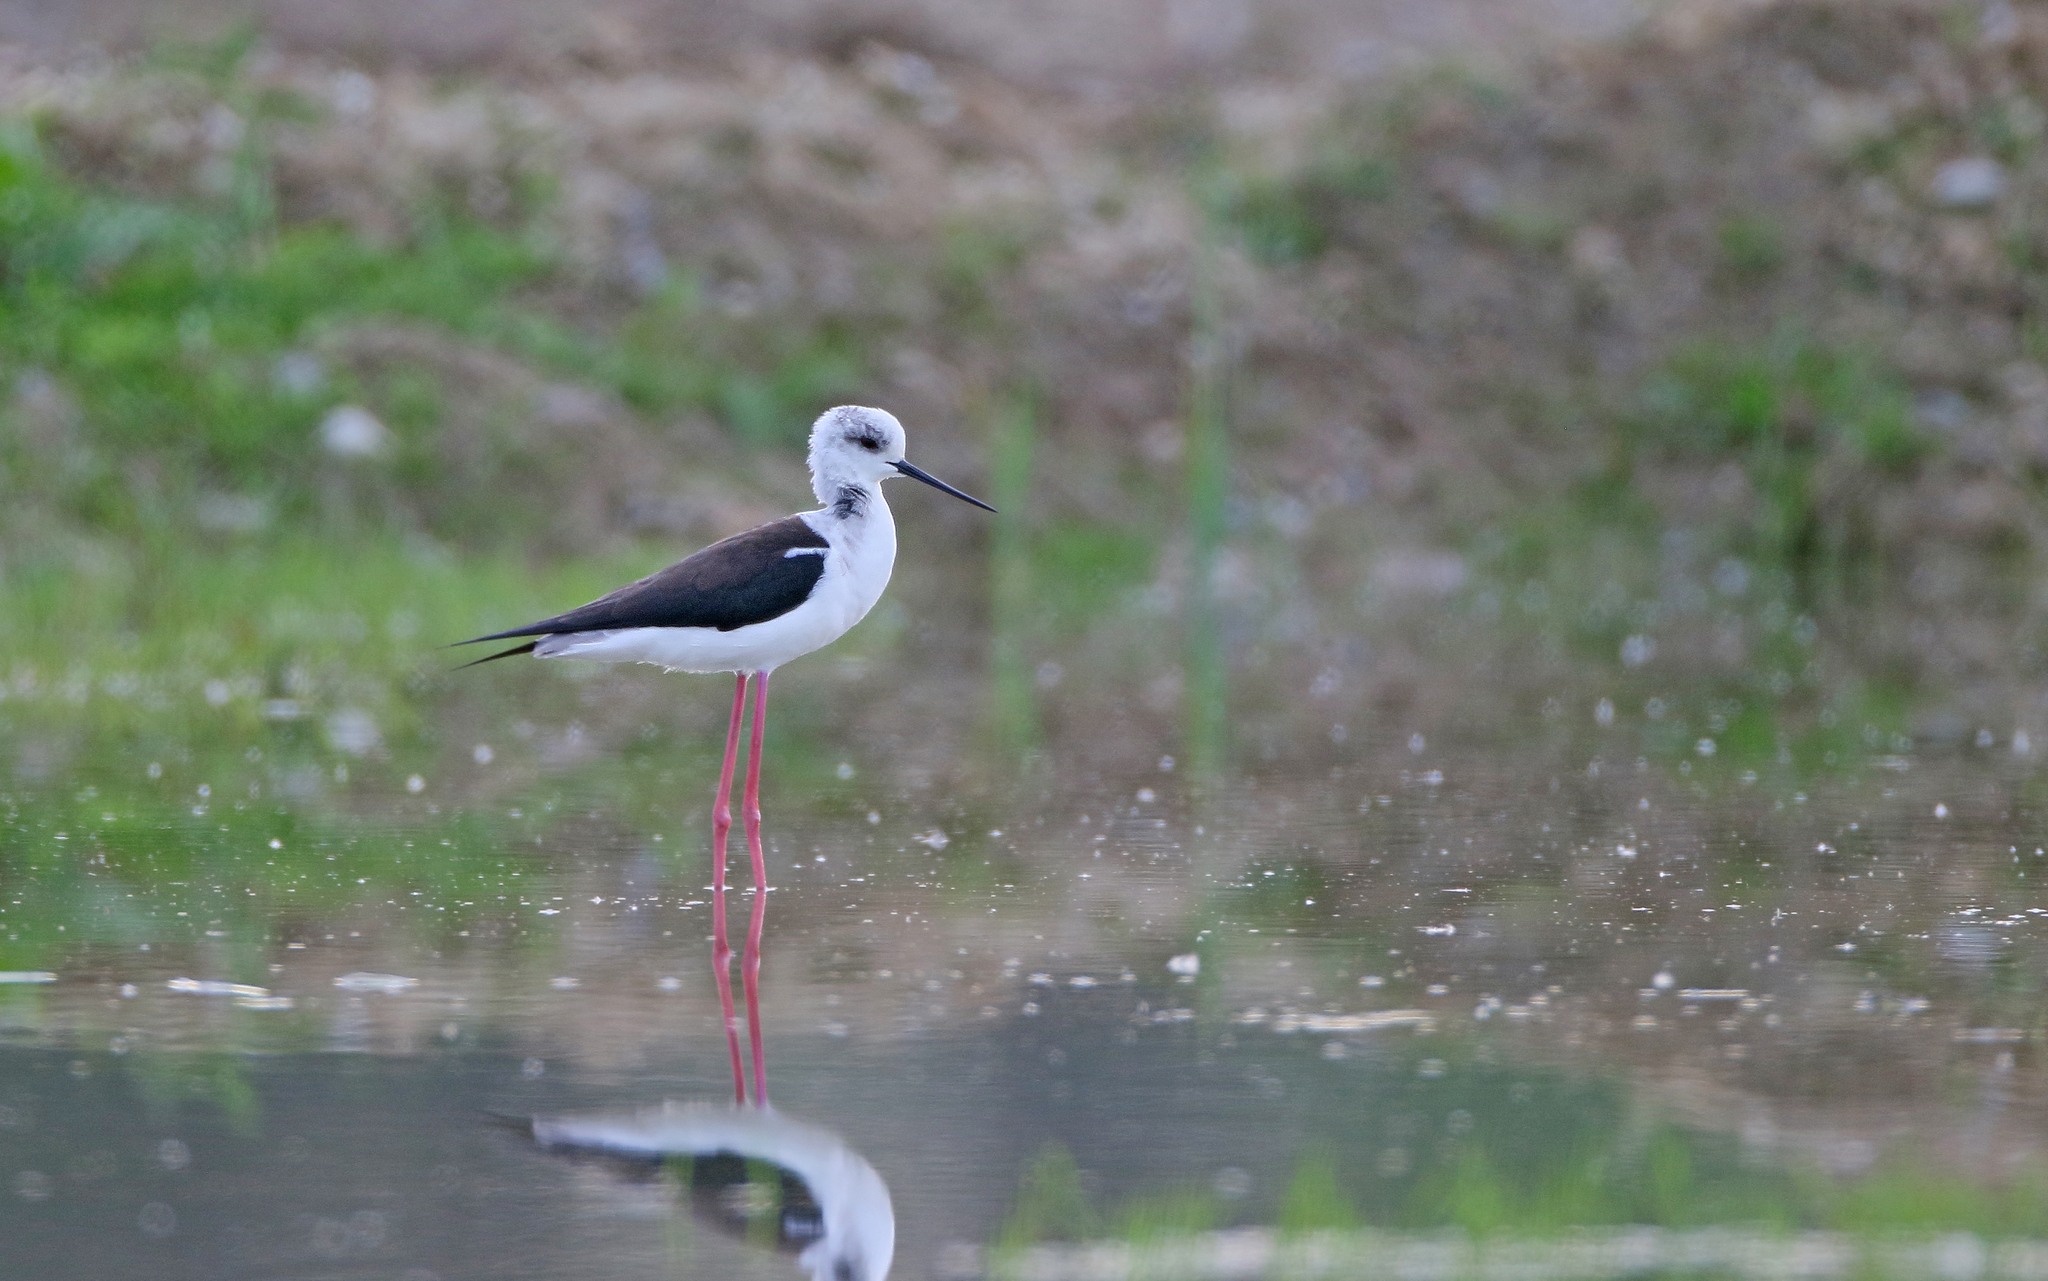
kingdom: Animalia
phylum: Chordata
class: Aves
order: Charadriiformes
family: Recurvirostridae
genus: Himantopus
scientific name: Himantopus himantopus
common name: Black-winged stilt
